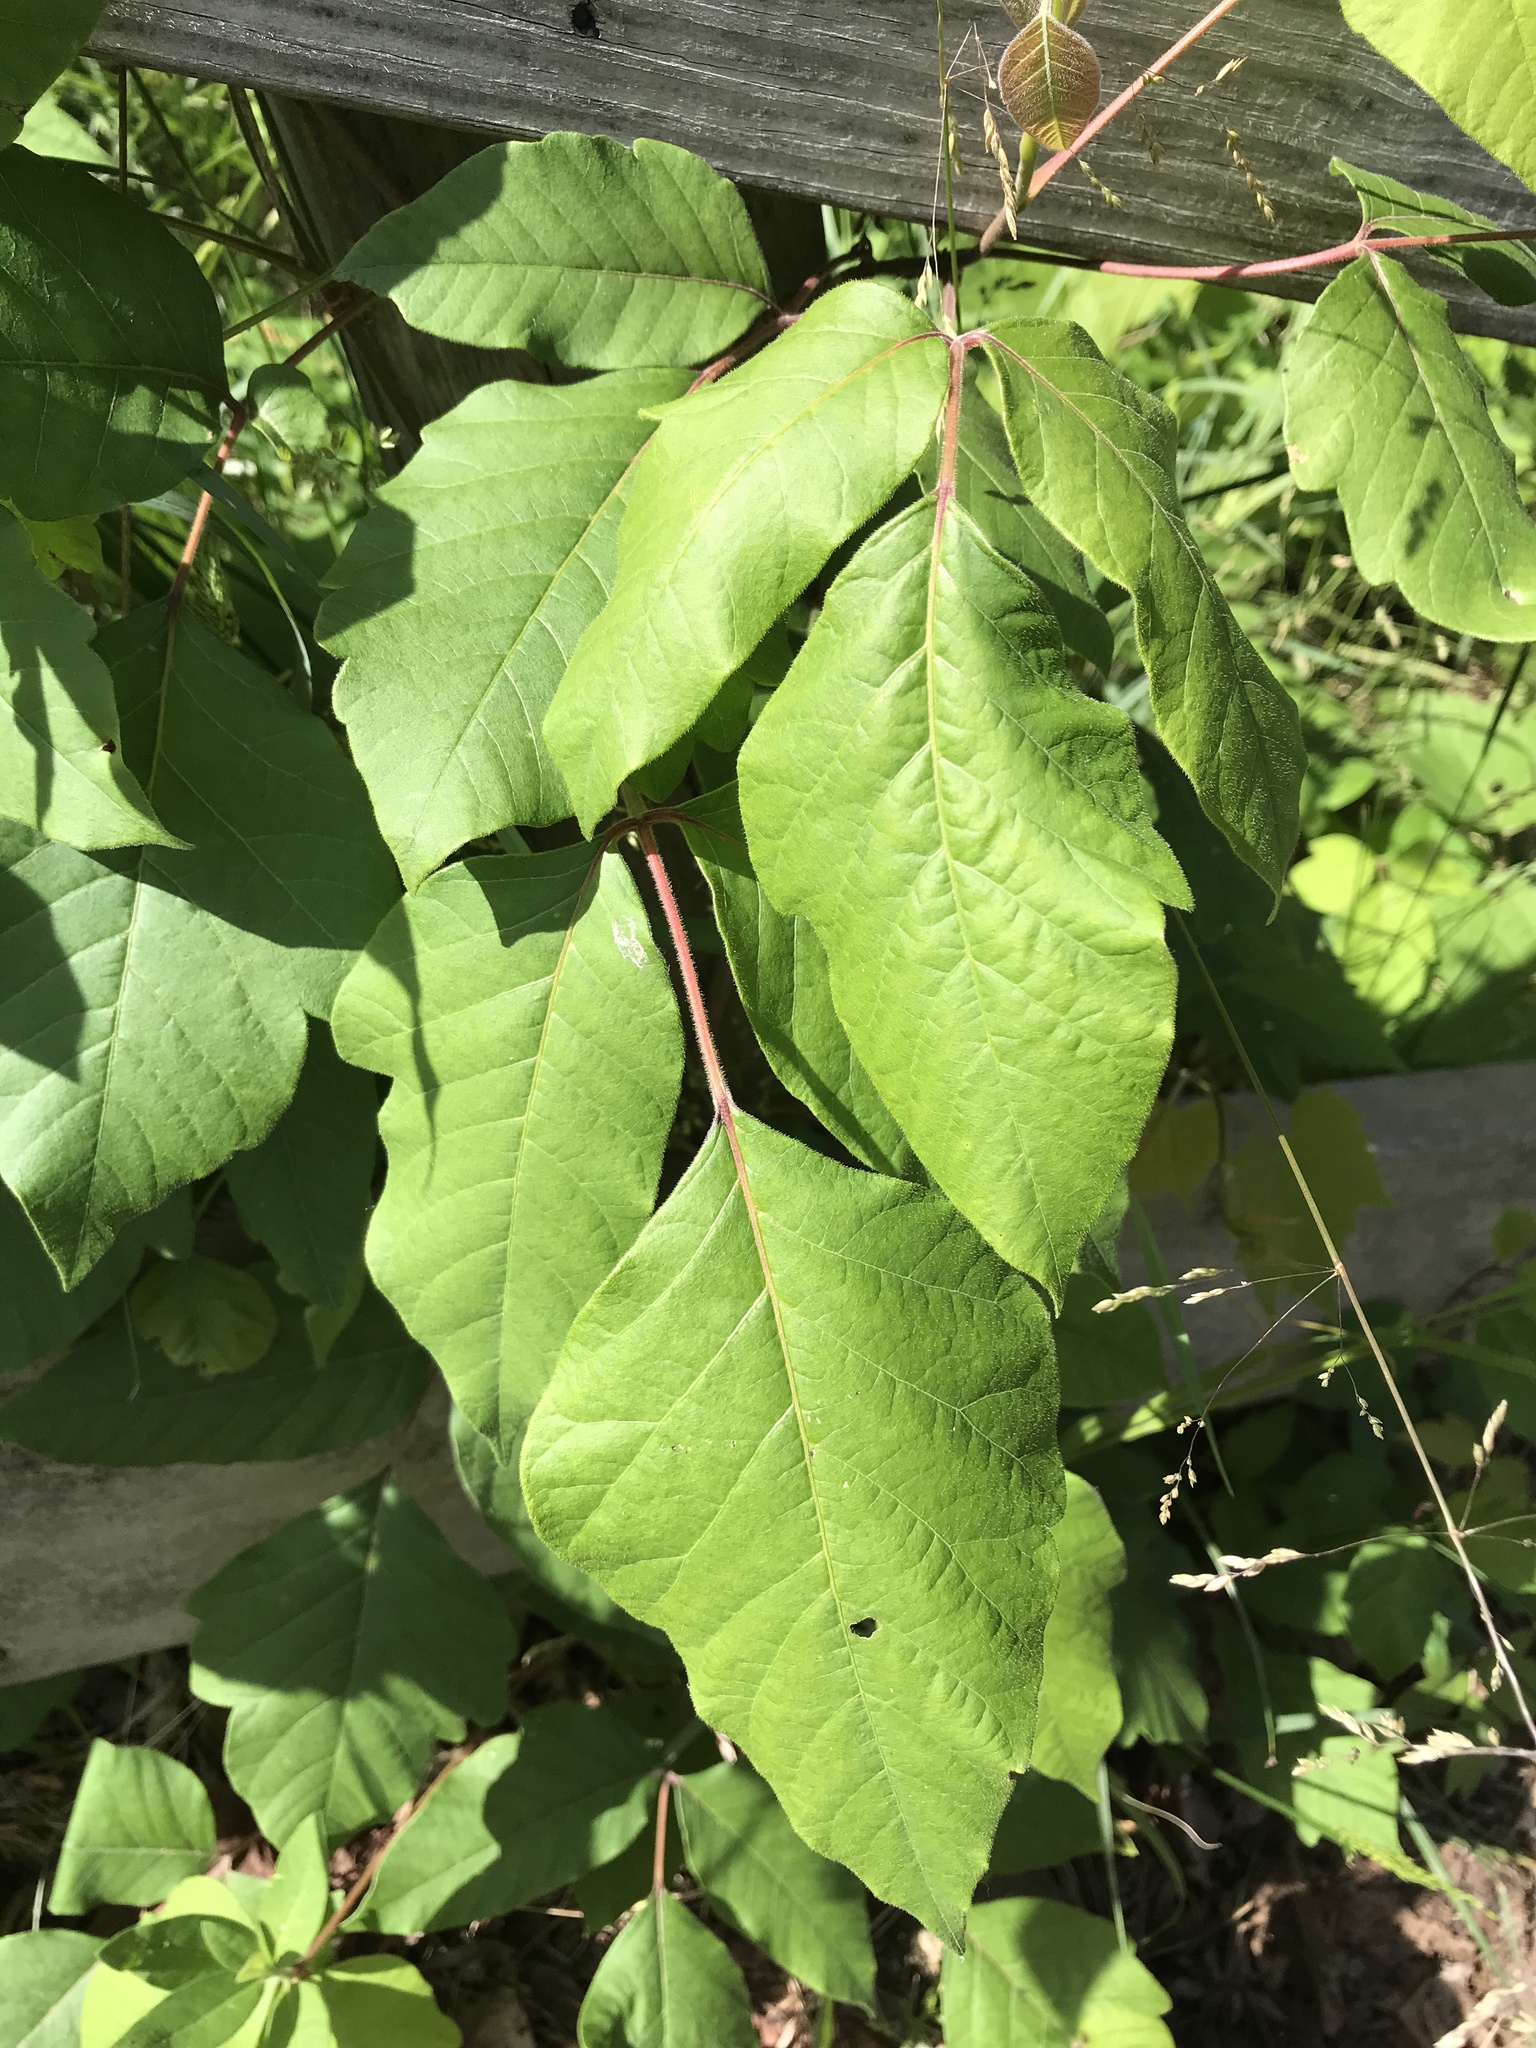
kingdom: Plantae
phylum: Tracheophyta
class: Magnoliopsida
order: Sapindales
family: Anacardiaceae
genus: Toxicodendron
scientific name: Toxicodendron radicans
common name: Poison ivy
